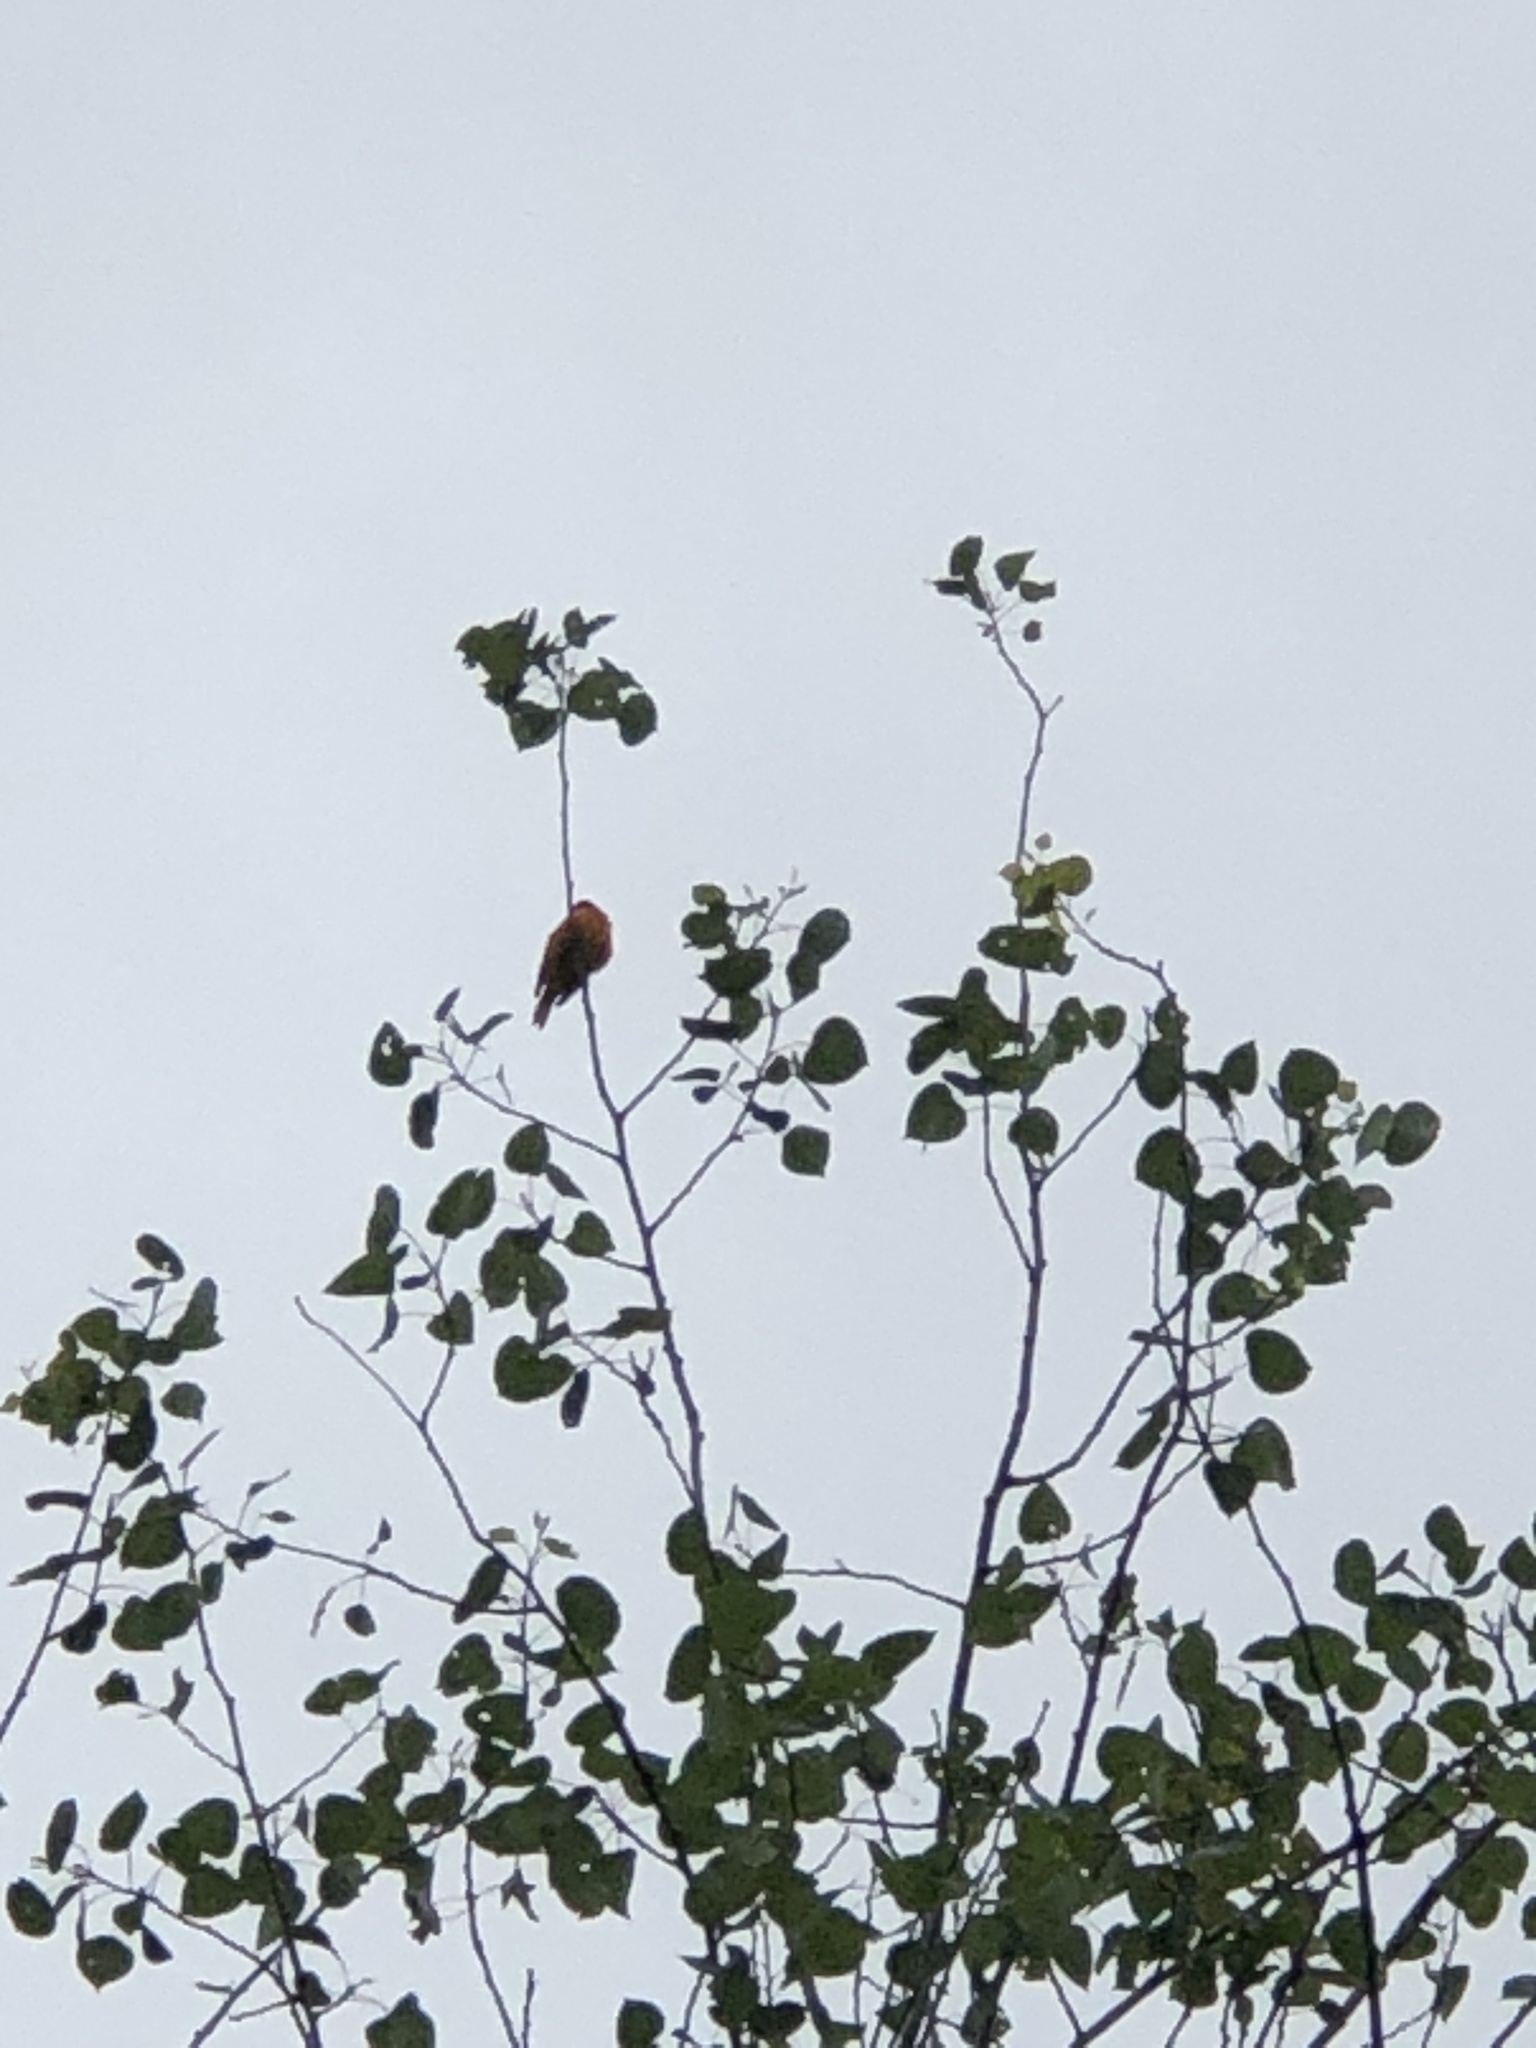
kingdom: Animalia
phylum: Chordata
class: Aves
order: Passeriformes
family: Icteridae
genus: Icterus
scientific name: Icterus galbula
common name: Baltimore oriole
